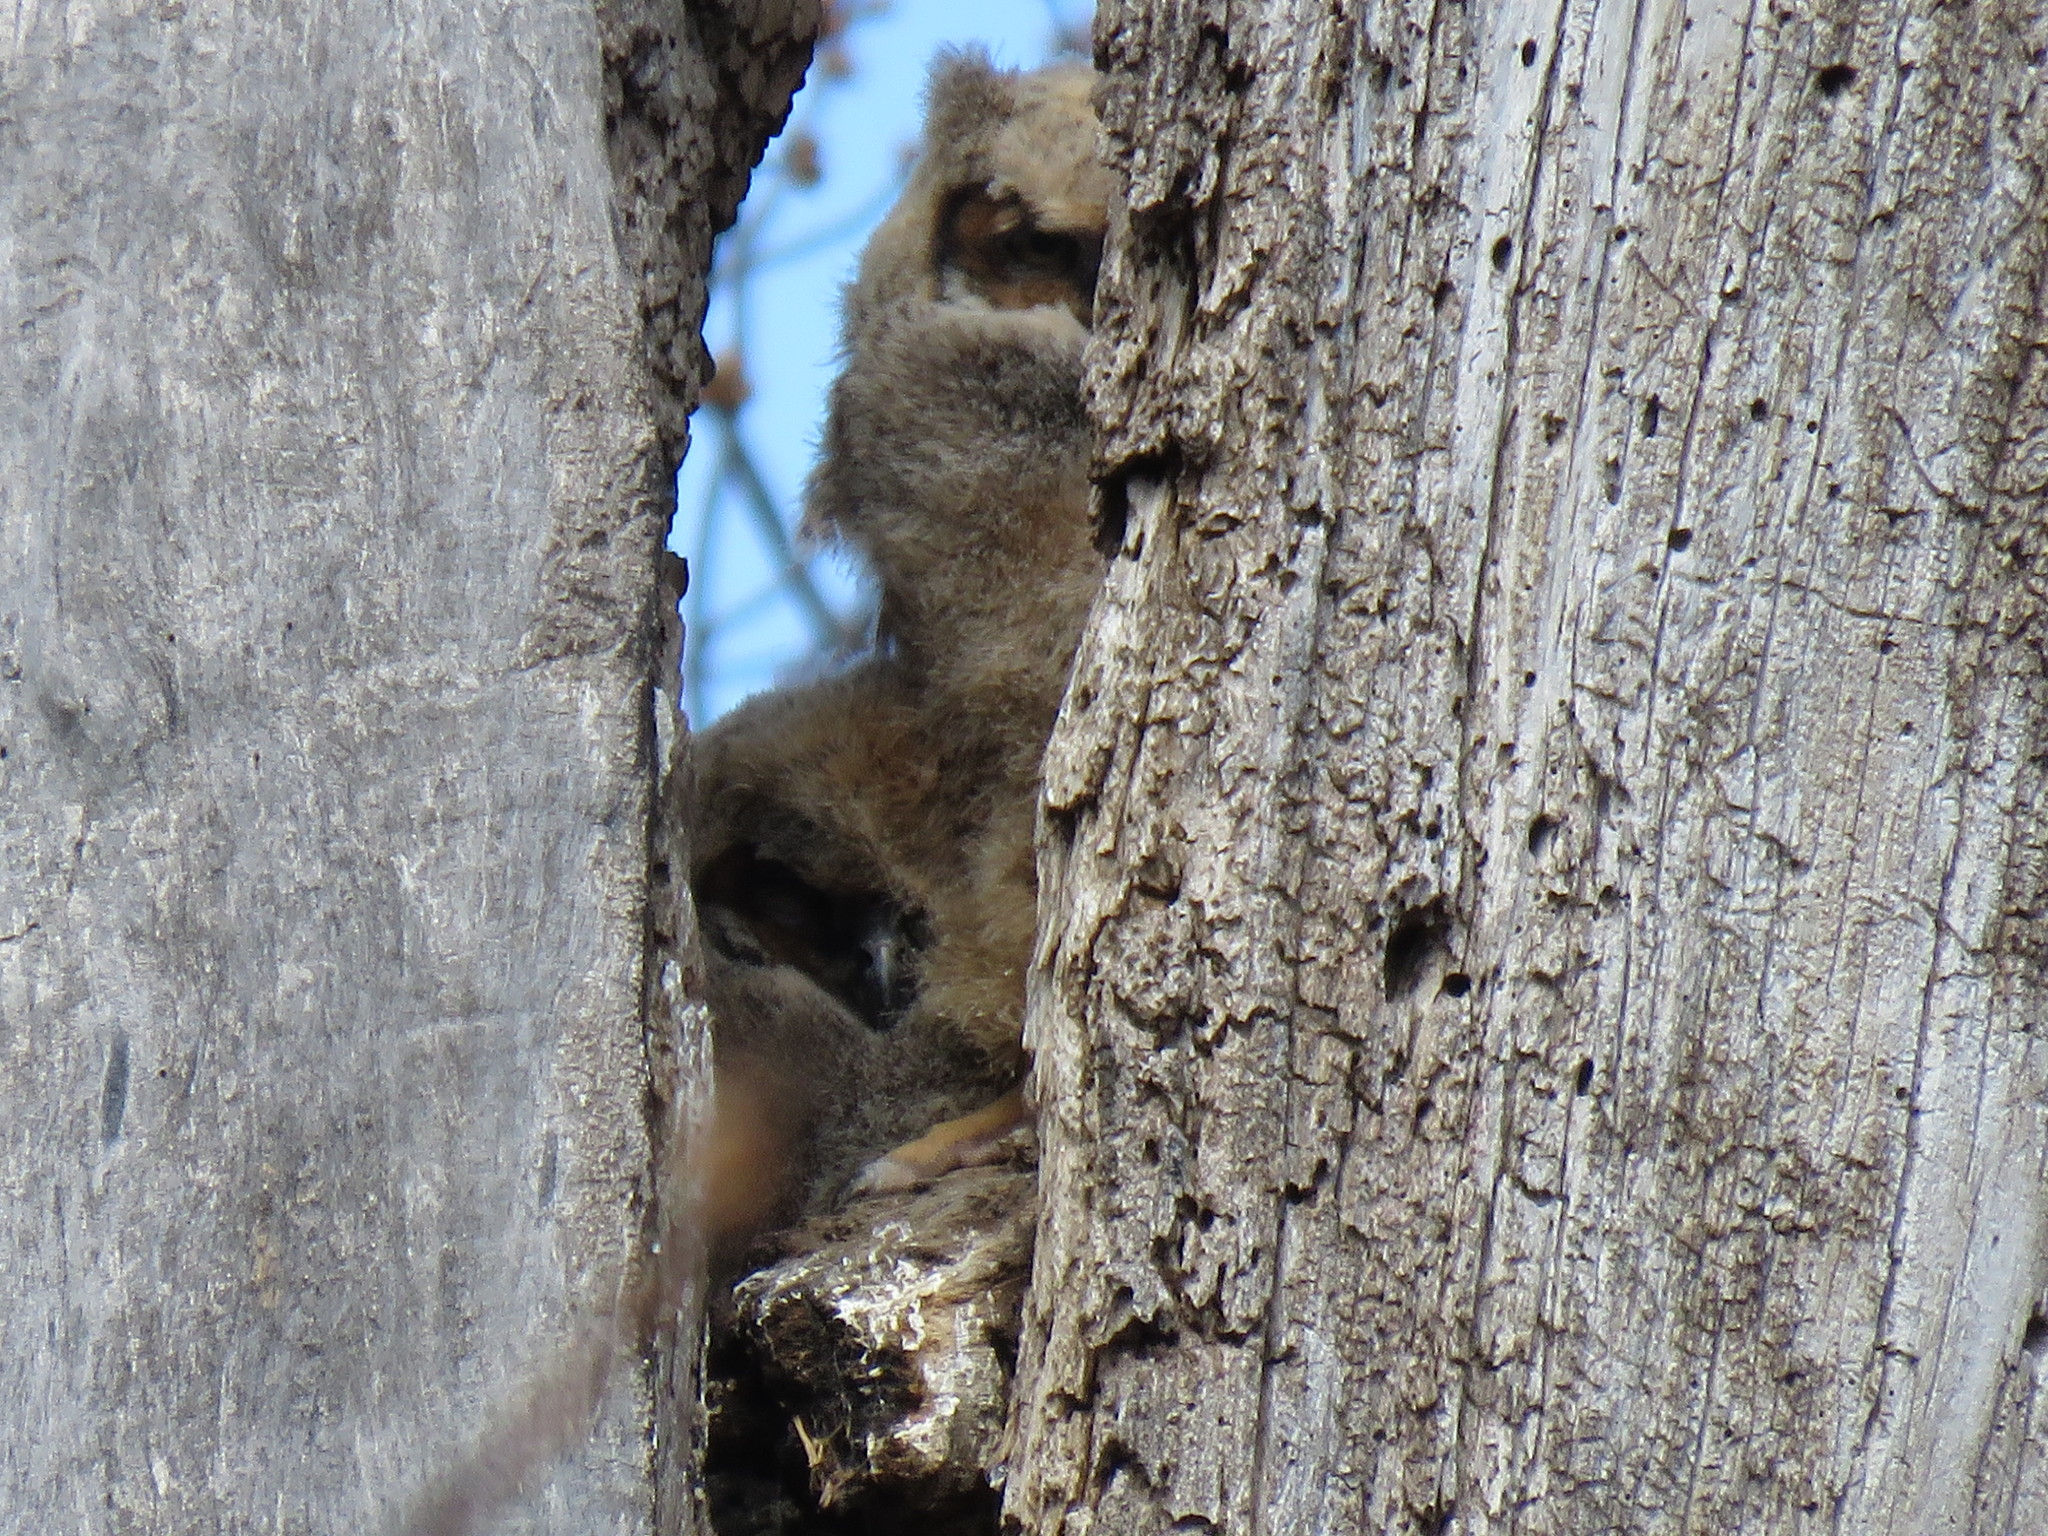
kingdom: Animalia
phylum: Chordata
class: Aves
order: Strigiformes
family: Strigidae
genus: Bubo
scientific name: Bubo virginianus
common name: Great horned owl
